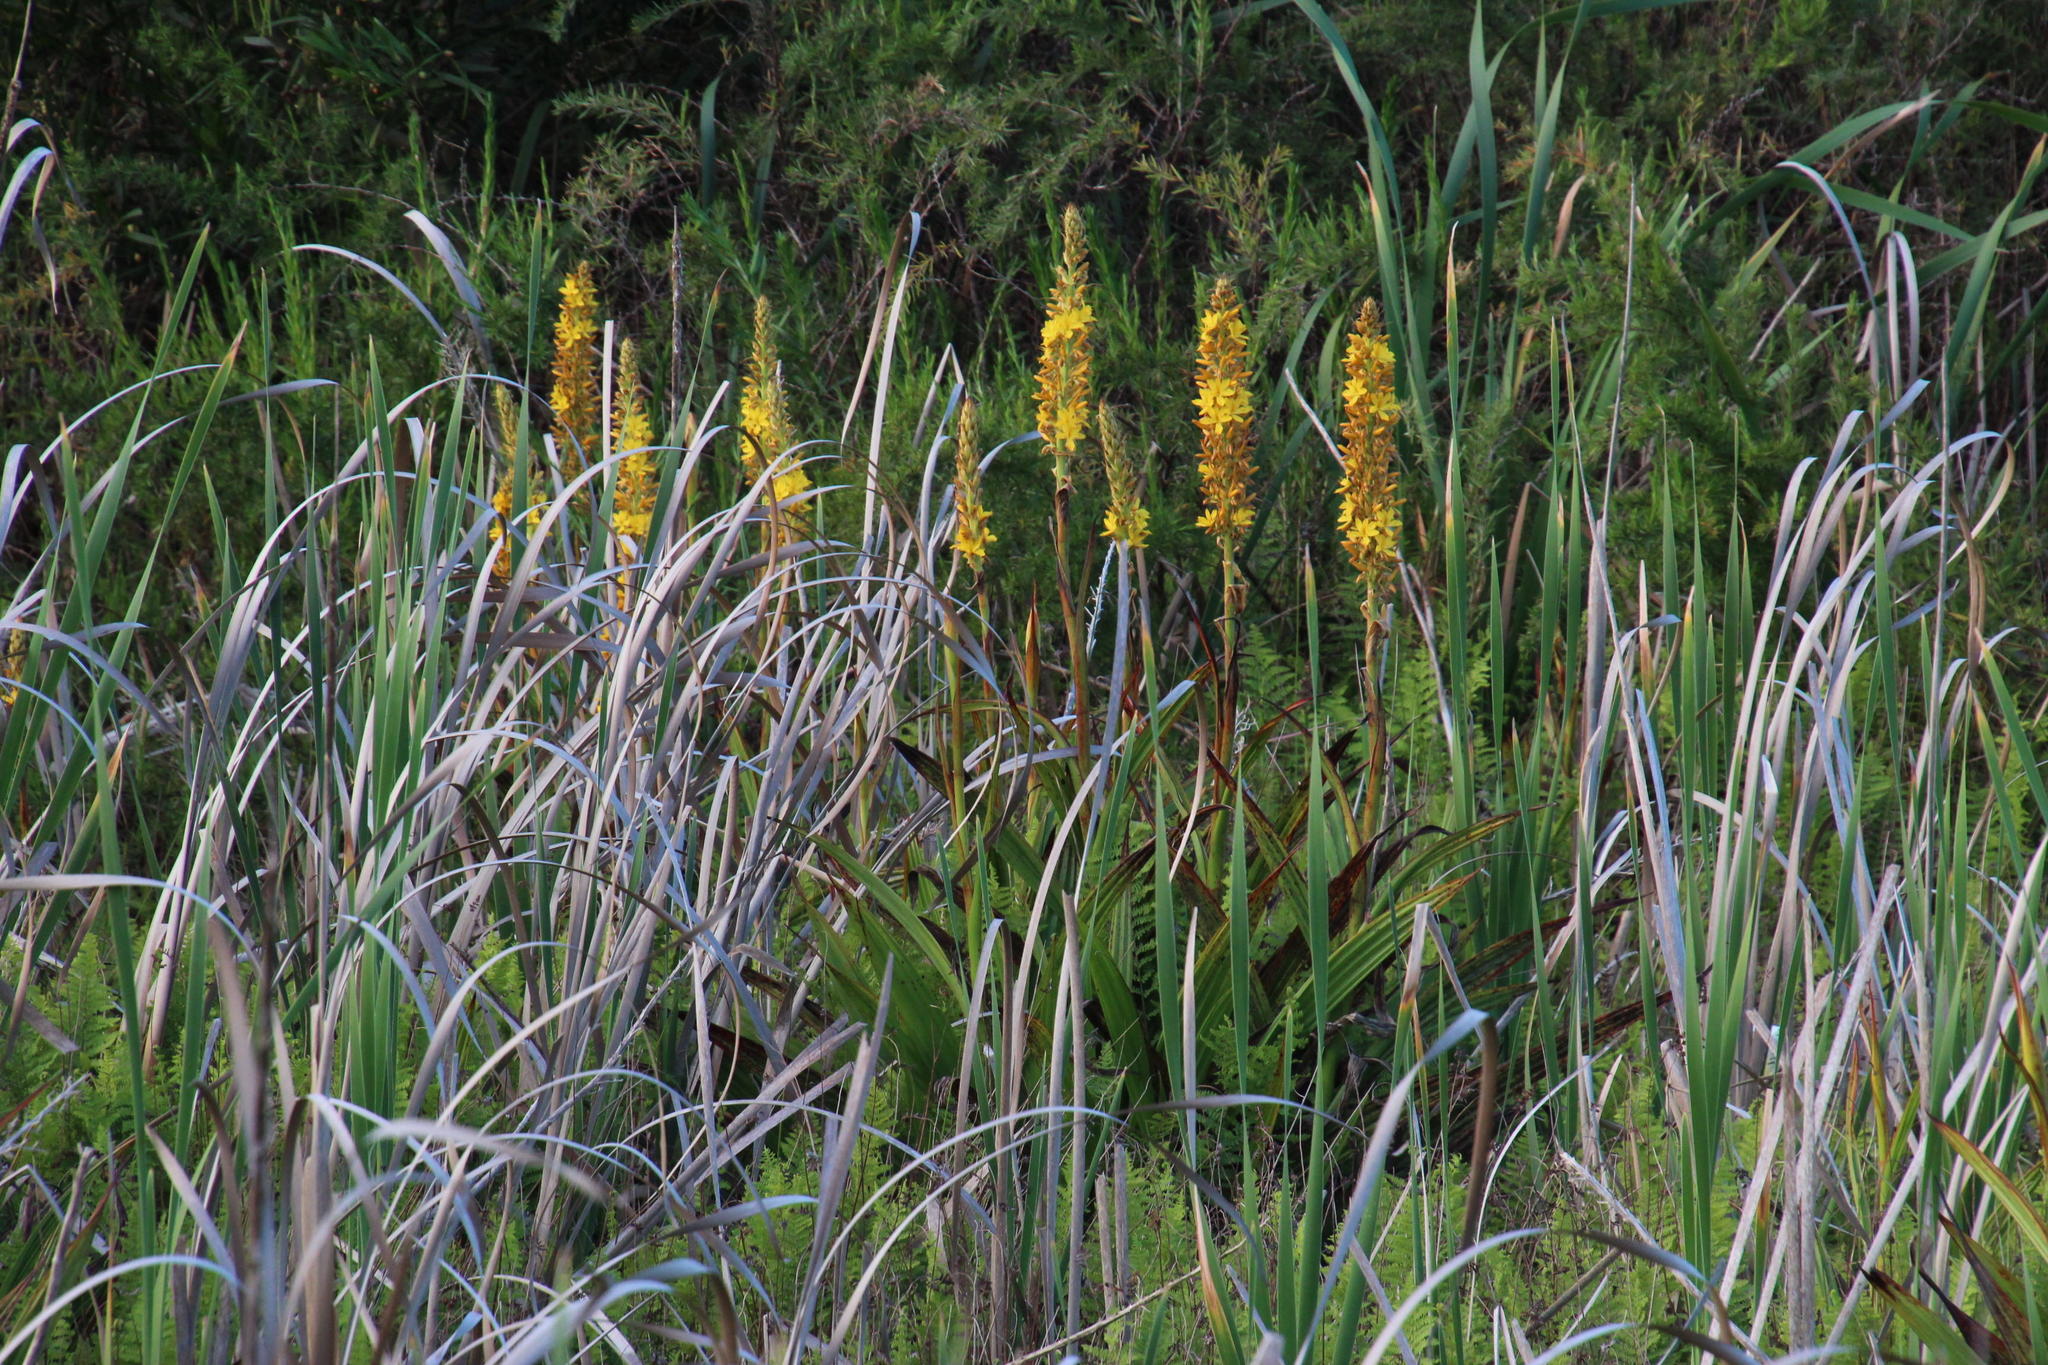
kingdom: Plantae
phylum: Tracheophyta
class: Liliopsida
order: Commelinales
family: Haemodoraceae
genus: Wachendorfia
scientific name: Wachendorfia thyrsiflora
